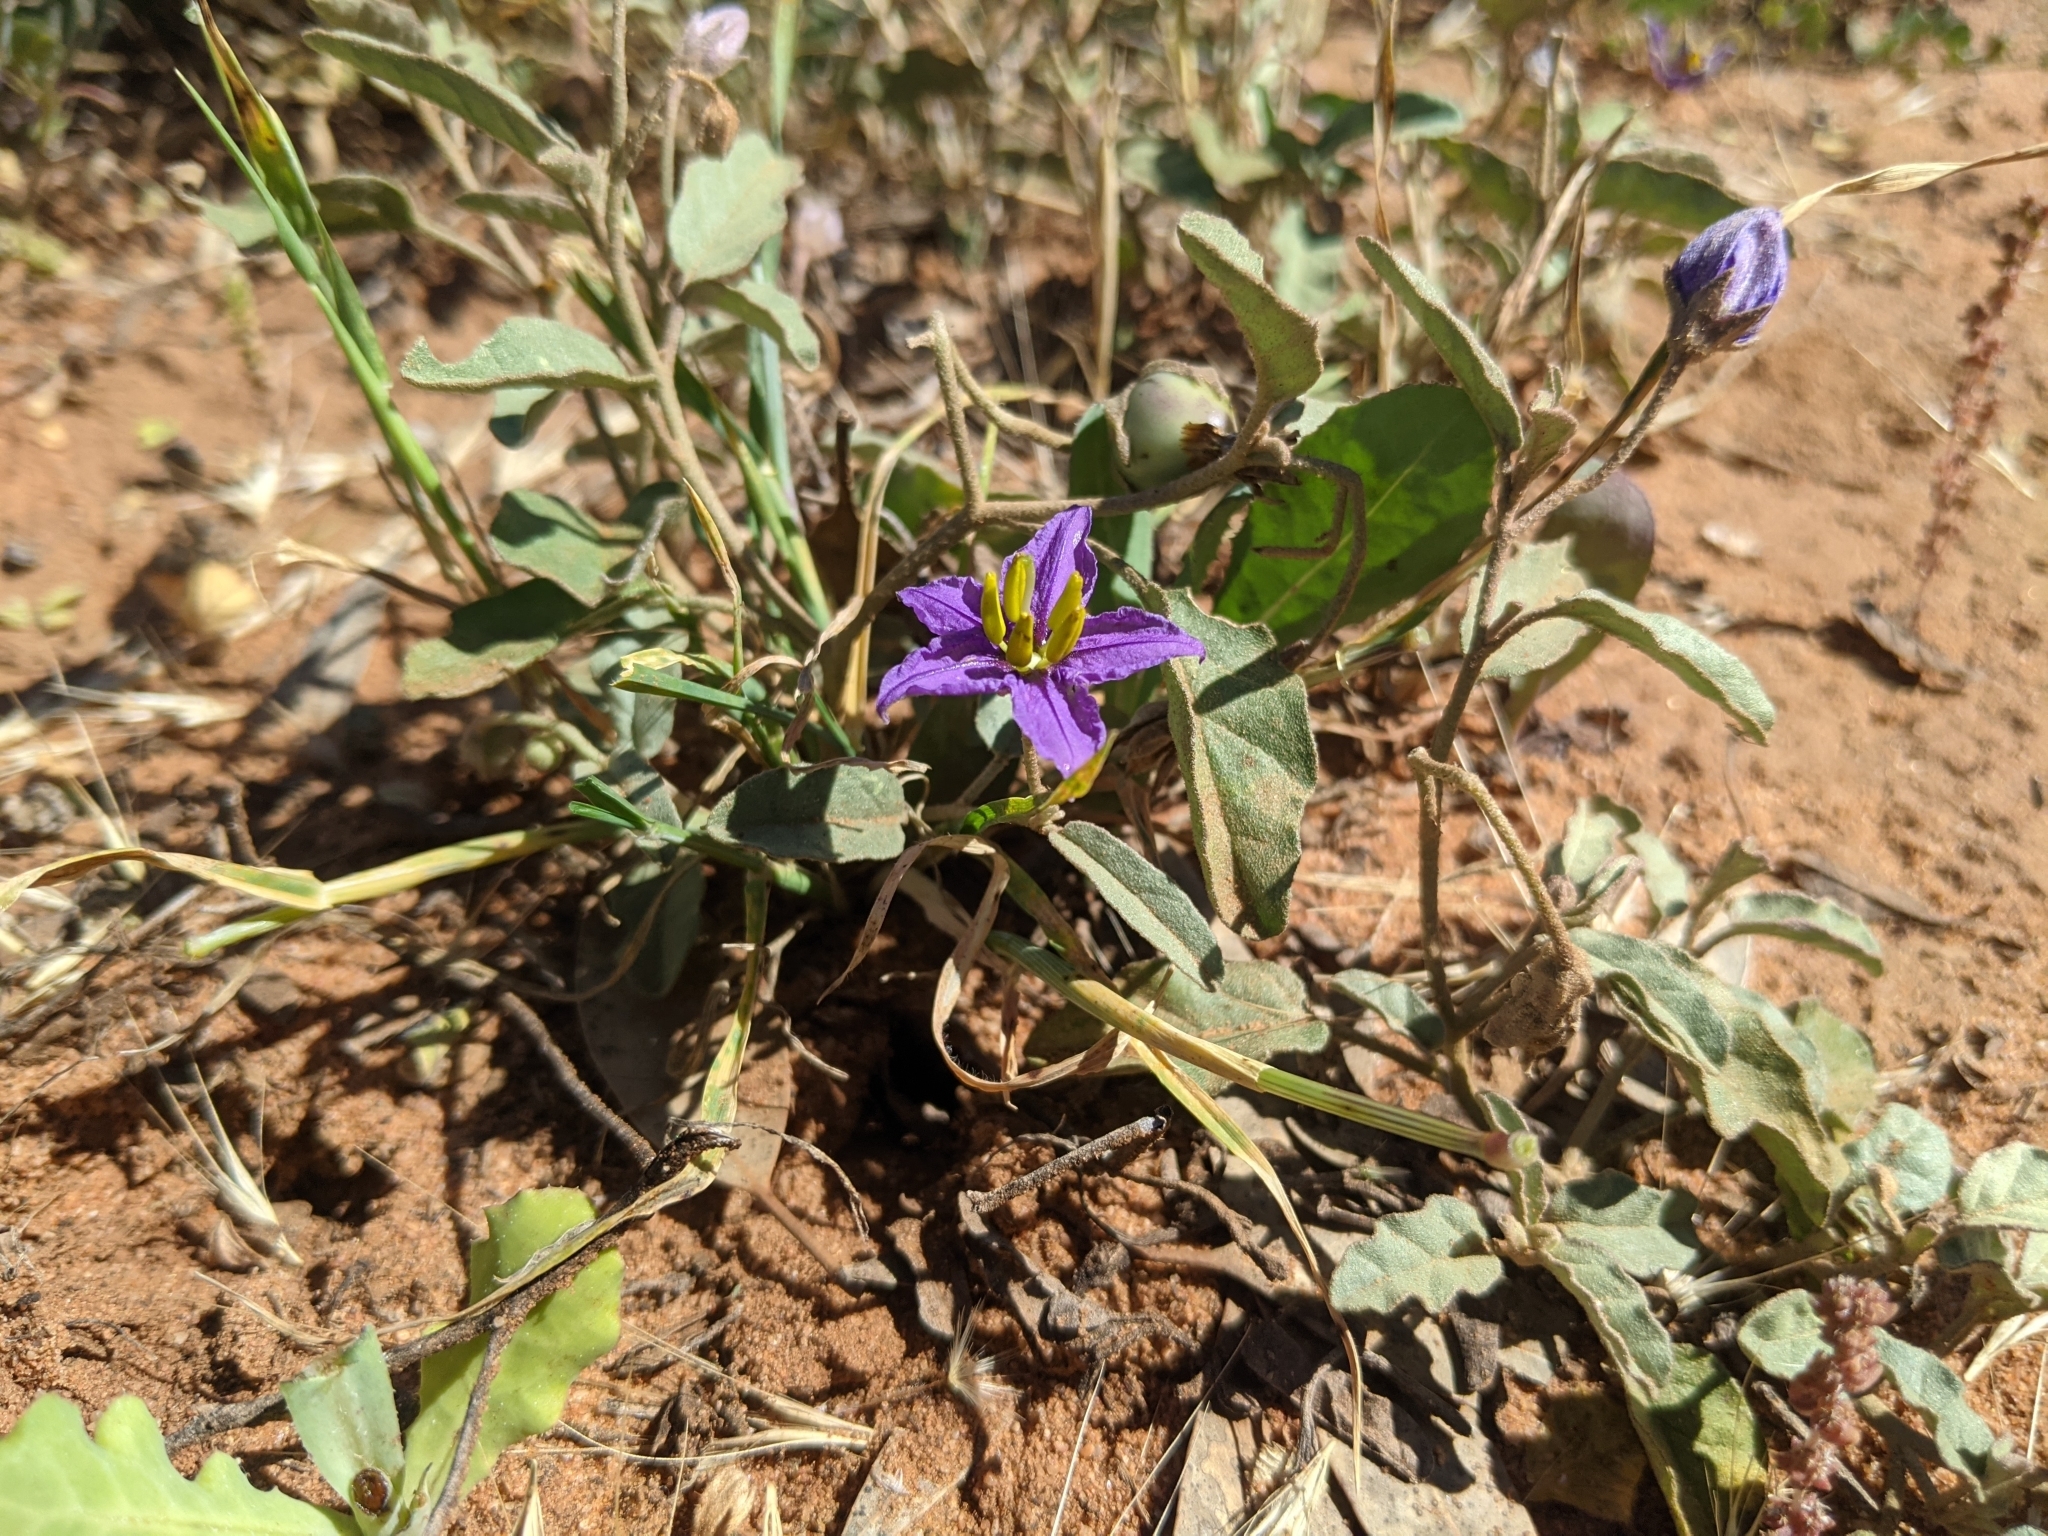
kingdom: Plantae
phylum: Tracheophyta
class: Magnoliopsida
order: Solanales
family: Solanaceae
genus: Solanum
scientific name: Solanum esuriale
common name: Wild tomato
